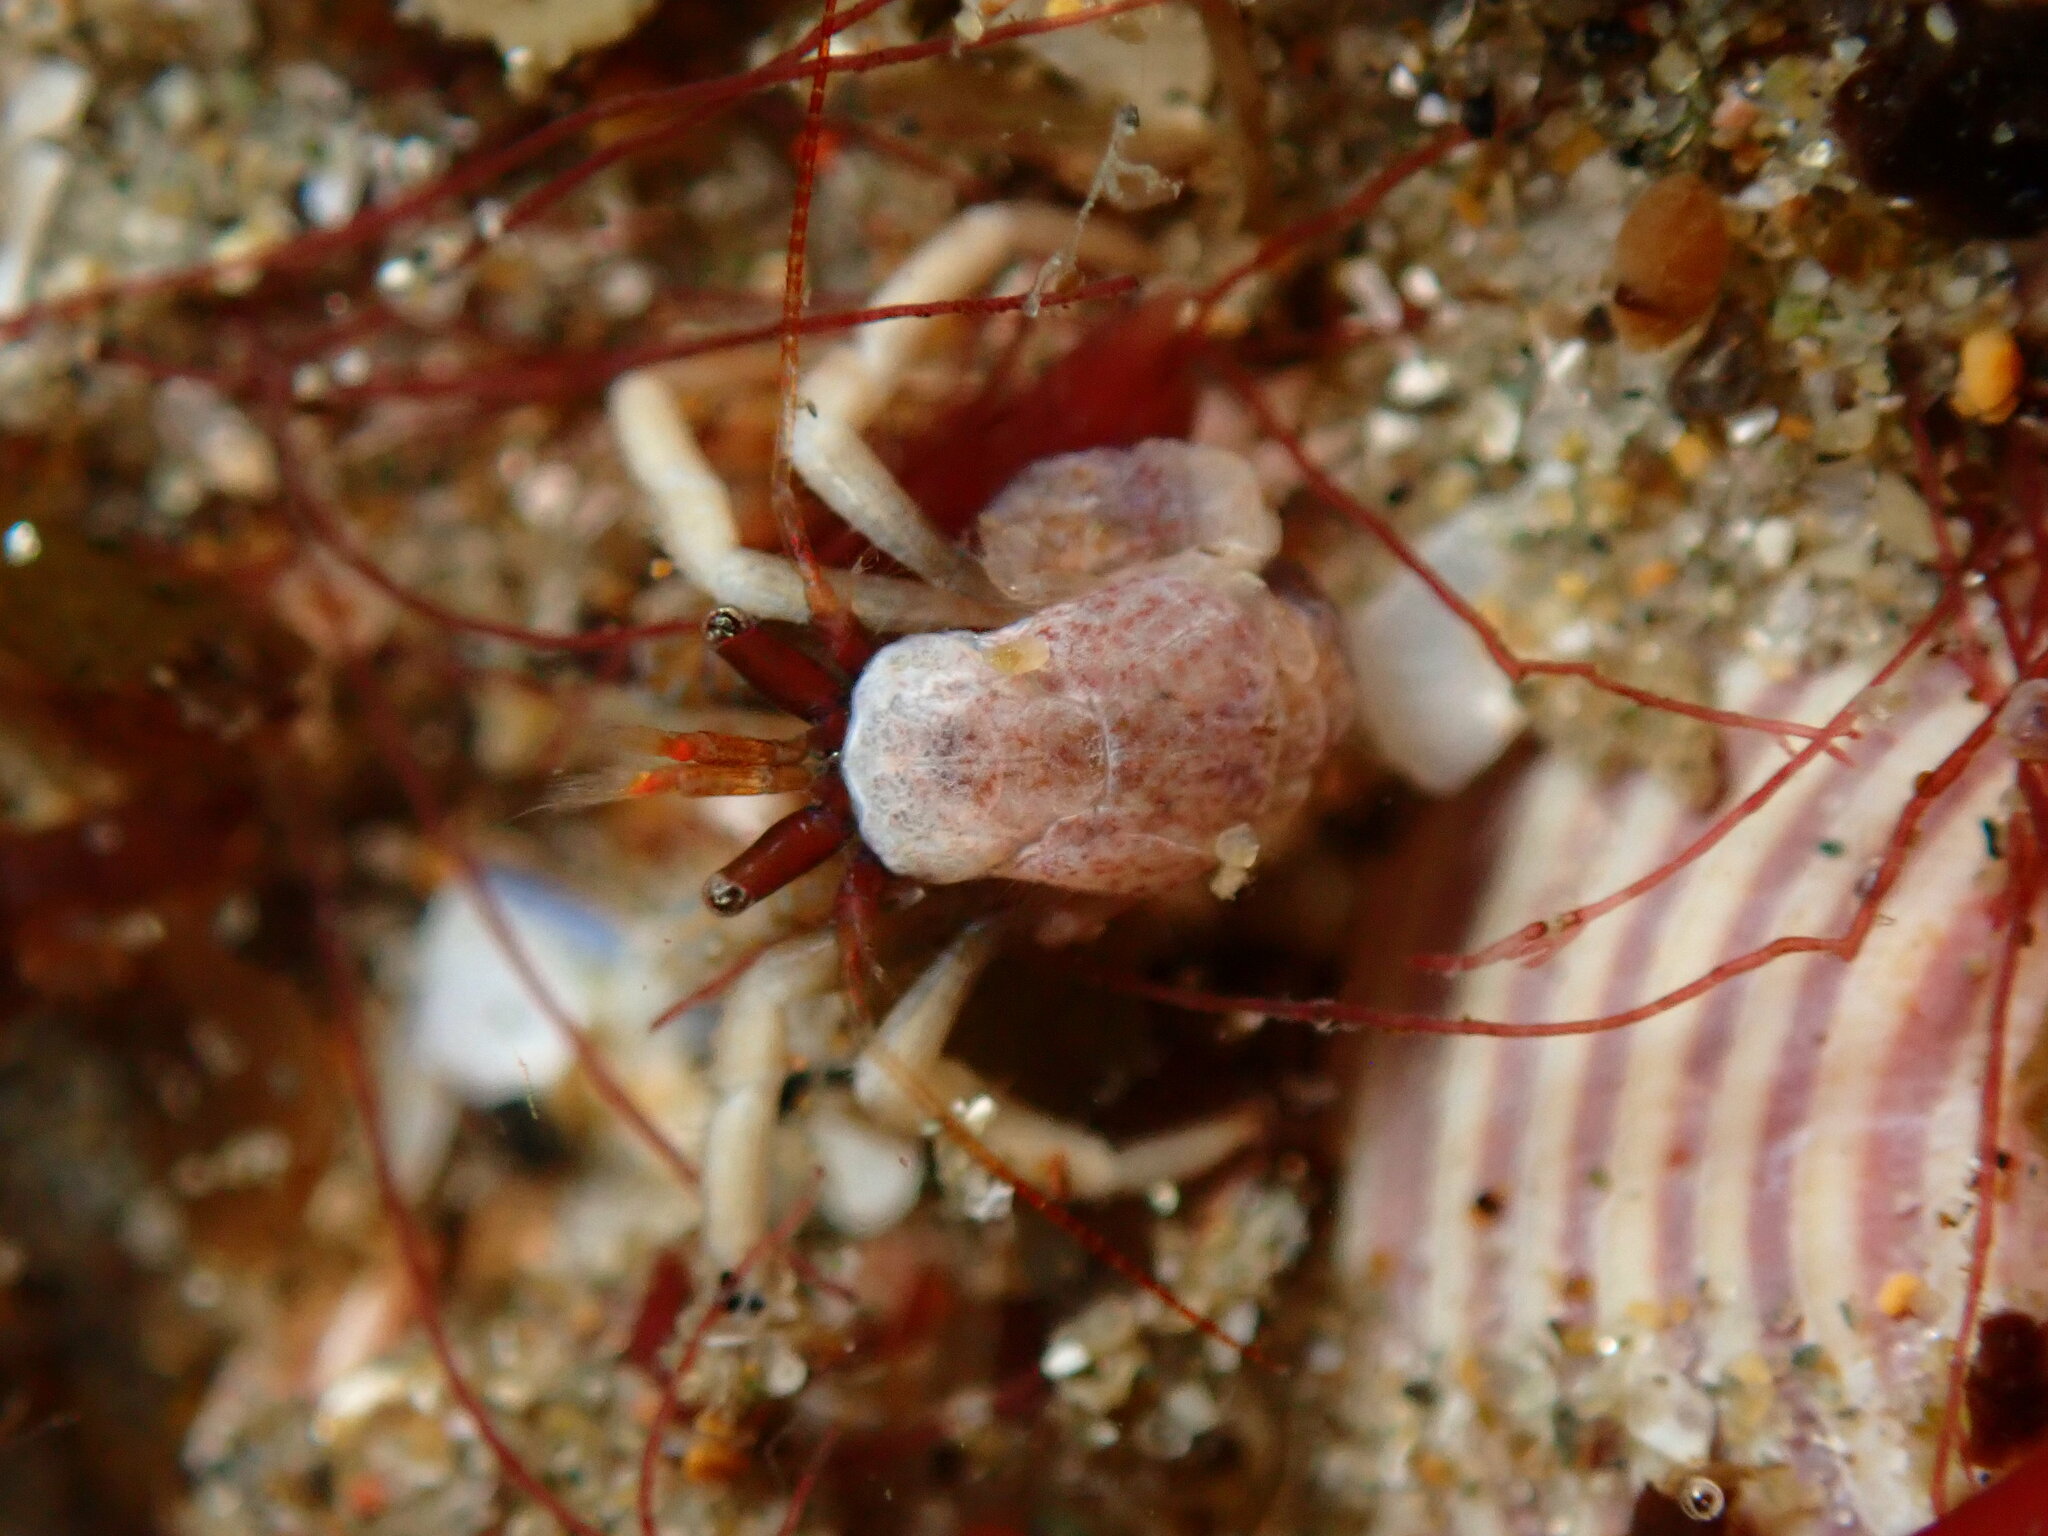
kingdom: Animalia
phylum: Arthropoda
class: Malacostraca
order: Decapoda
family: Paguridae
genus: Pagurus
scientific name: Pagurus granosimanus
